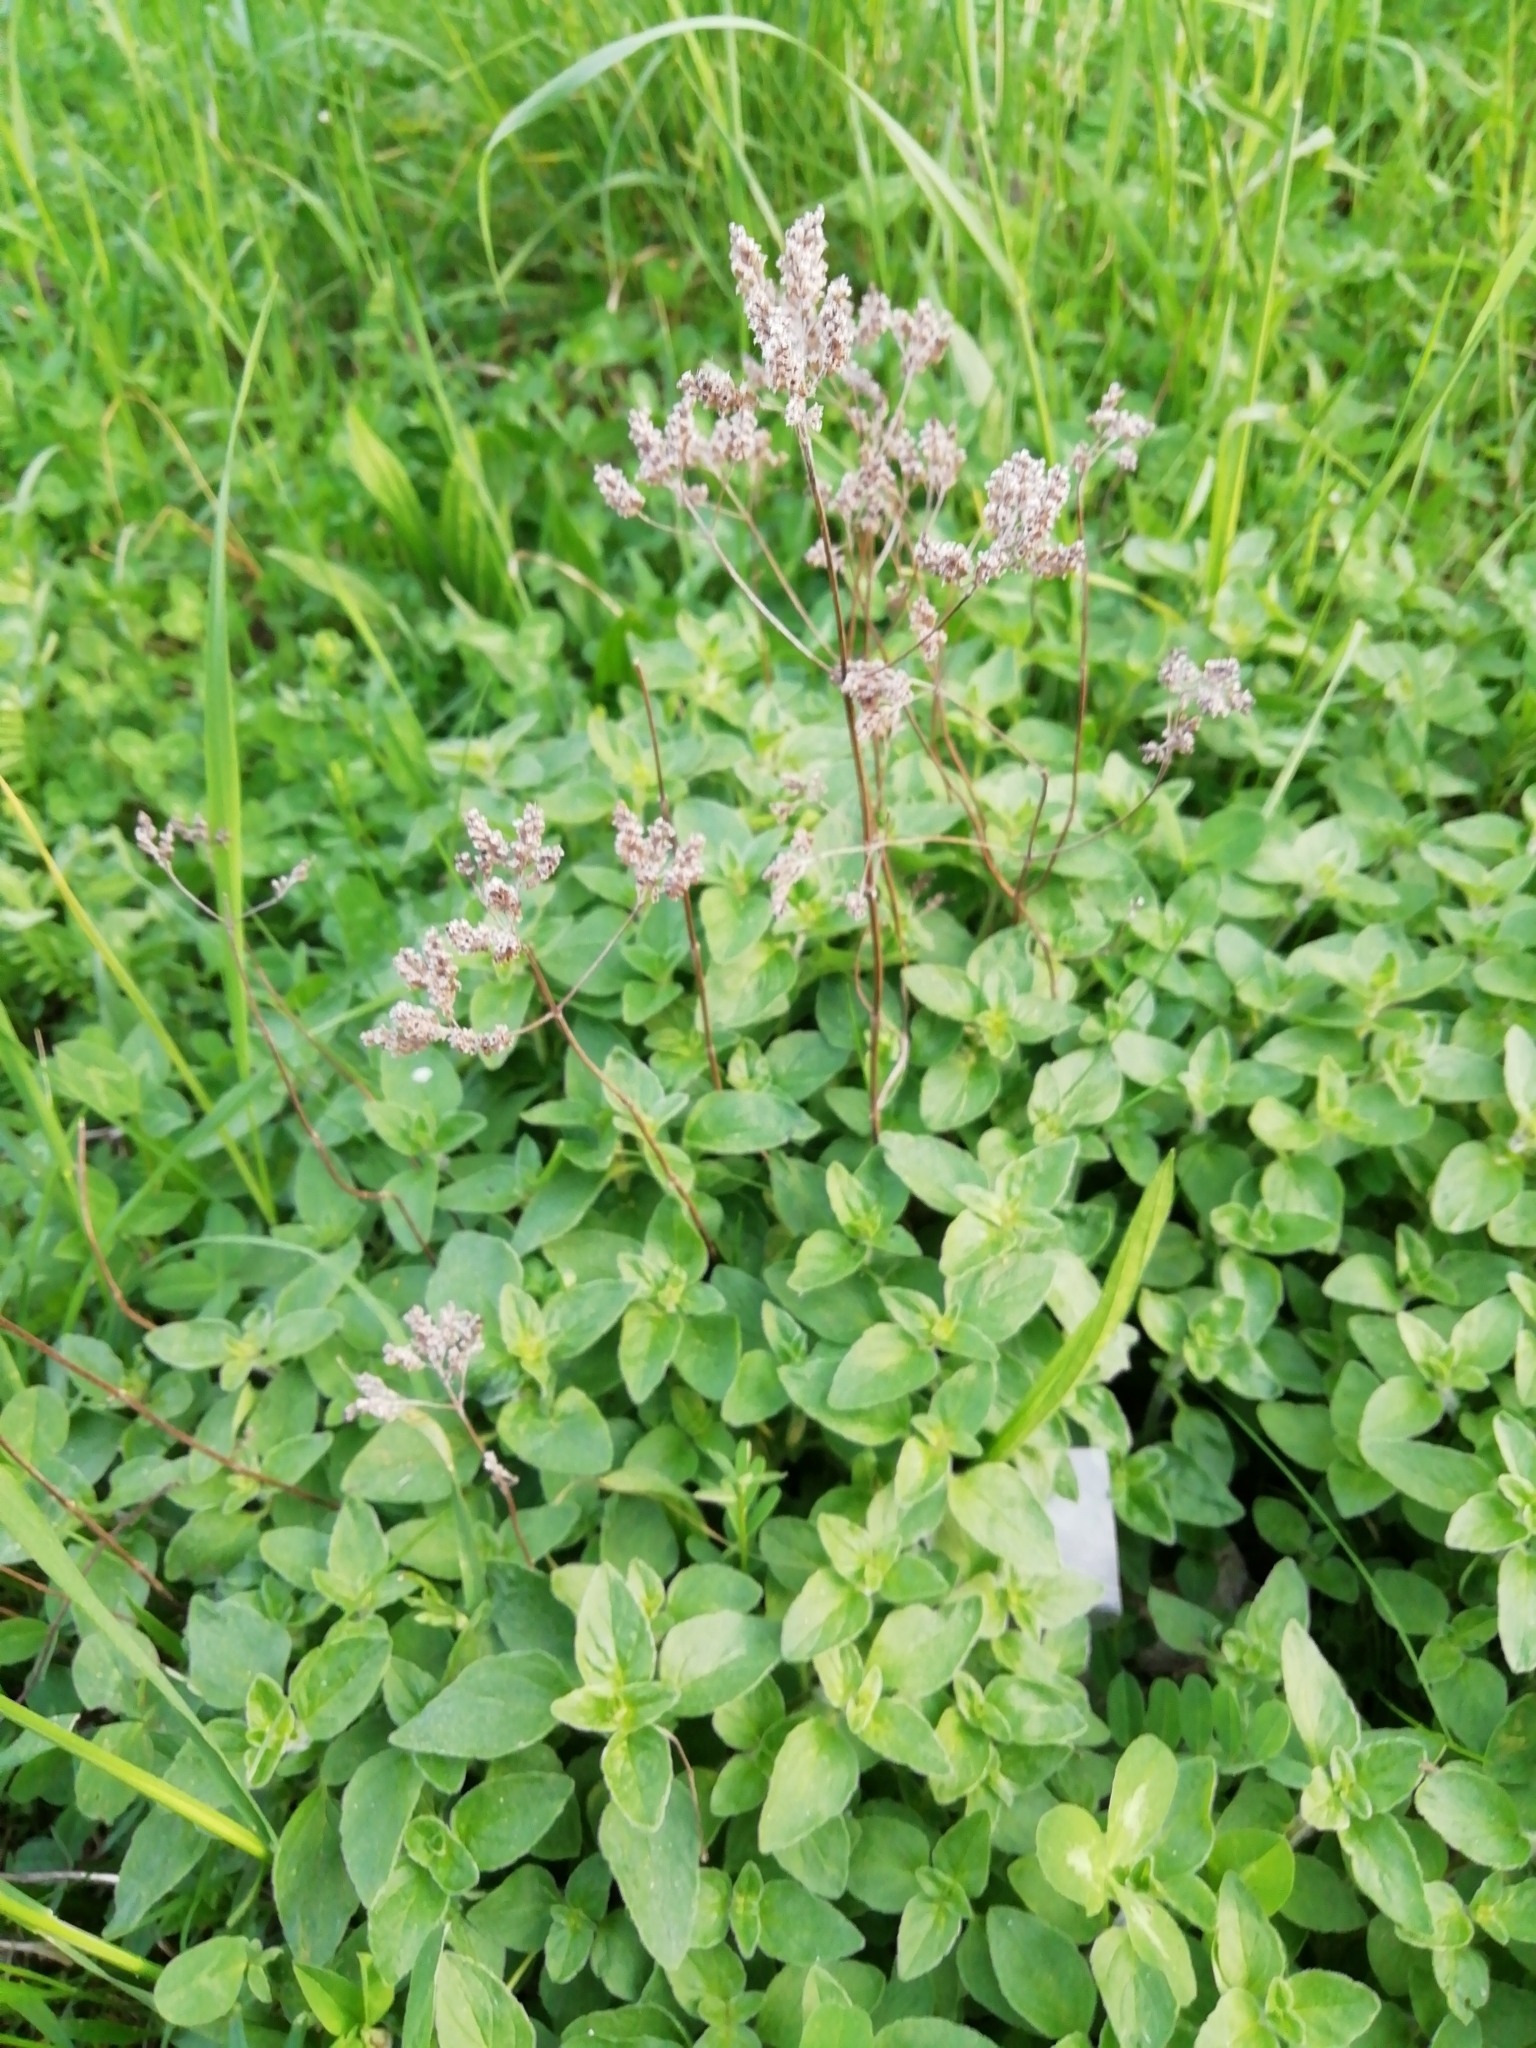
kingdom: Plantae
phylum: Tracheophyta
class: Magnoliopsida
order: Lamiales
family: Lamiaceae
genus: Origanum
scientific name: Origanum vulgare
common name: Wild marjoram
